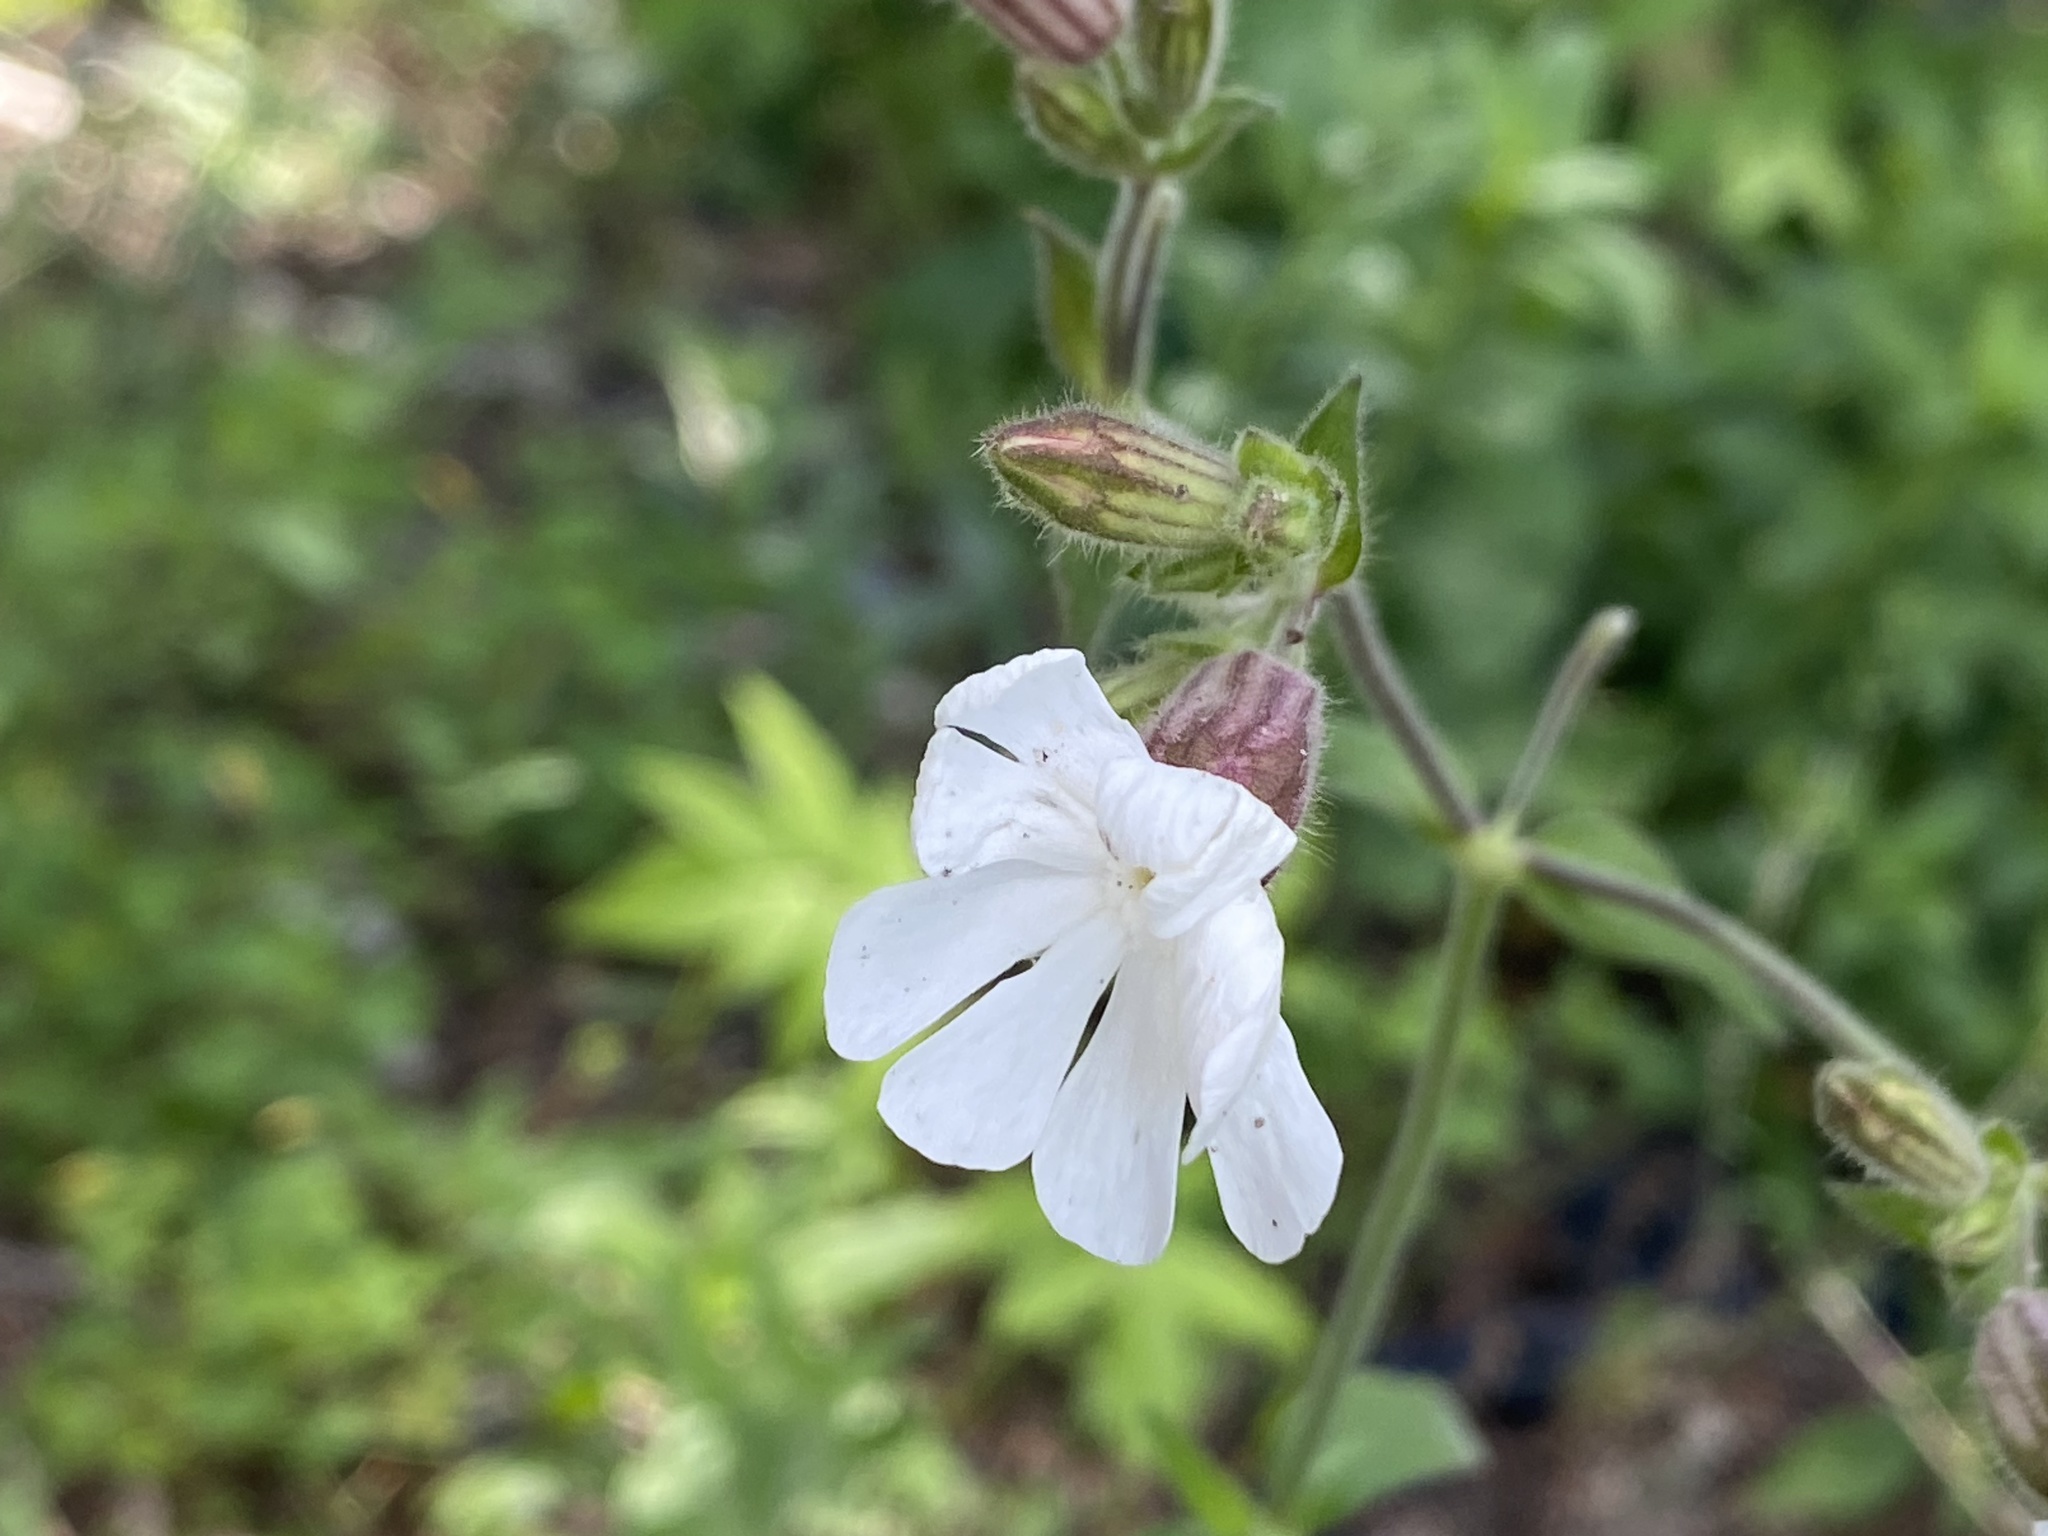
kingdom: Plantae
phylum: Tracheophyta
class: Magnoliopsida
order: Caryophyllales
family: Caryophyllaceae
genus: Silene
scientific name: Silene latifolia
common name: White campion
